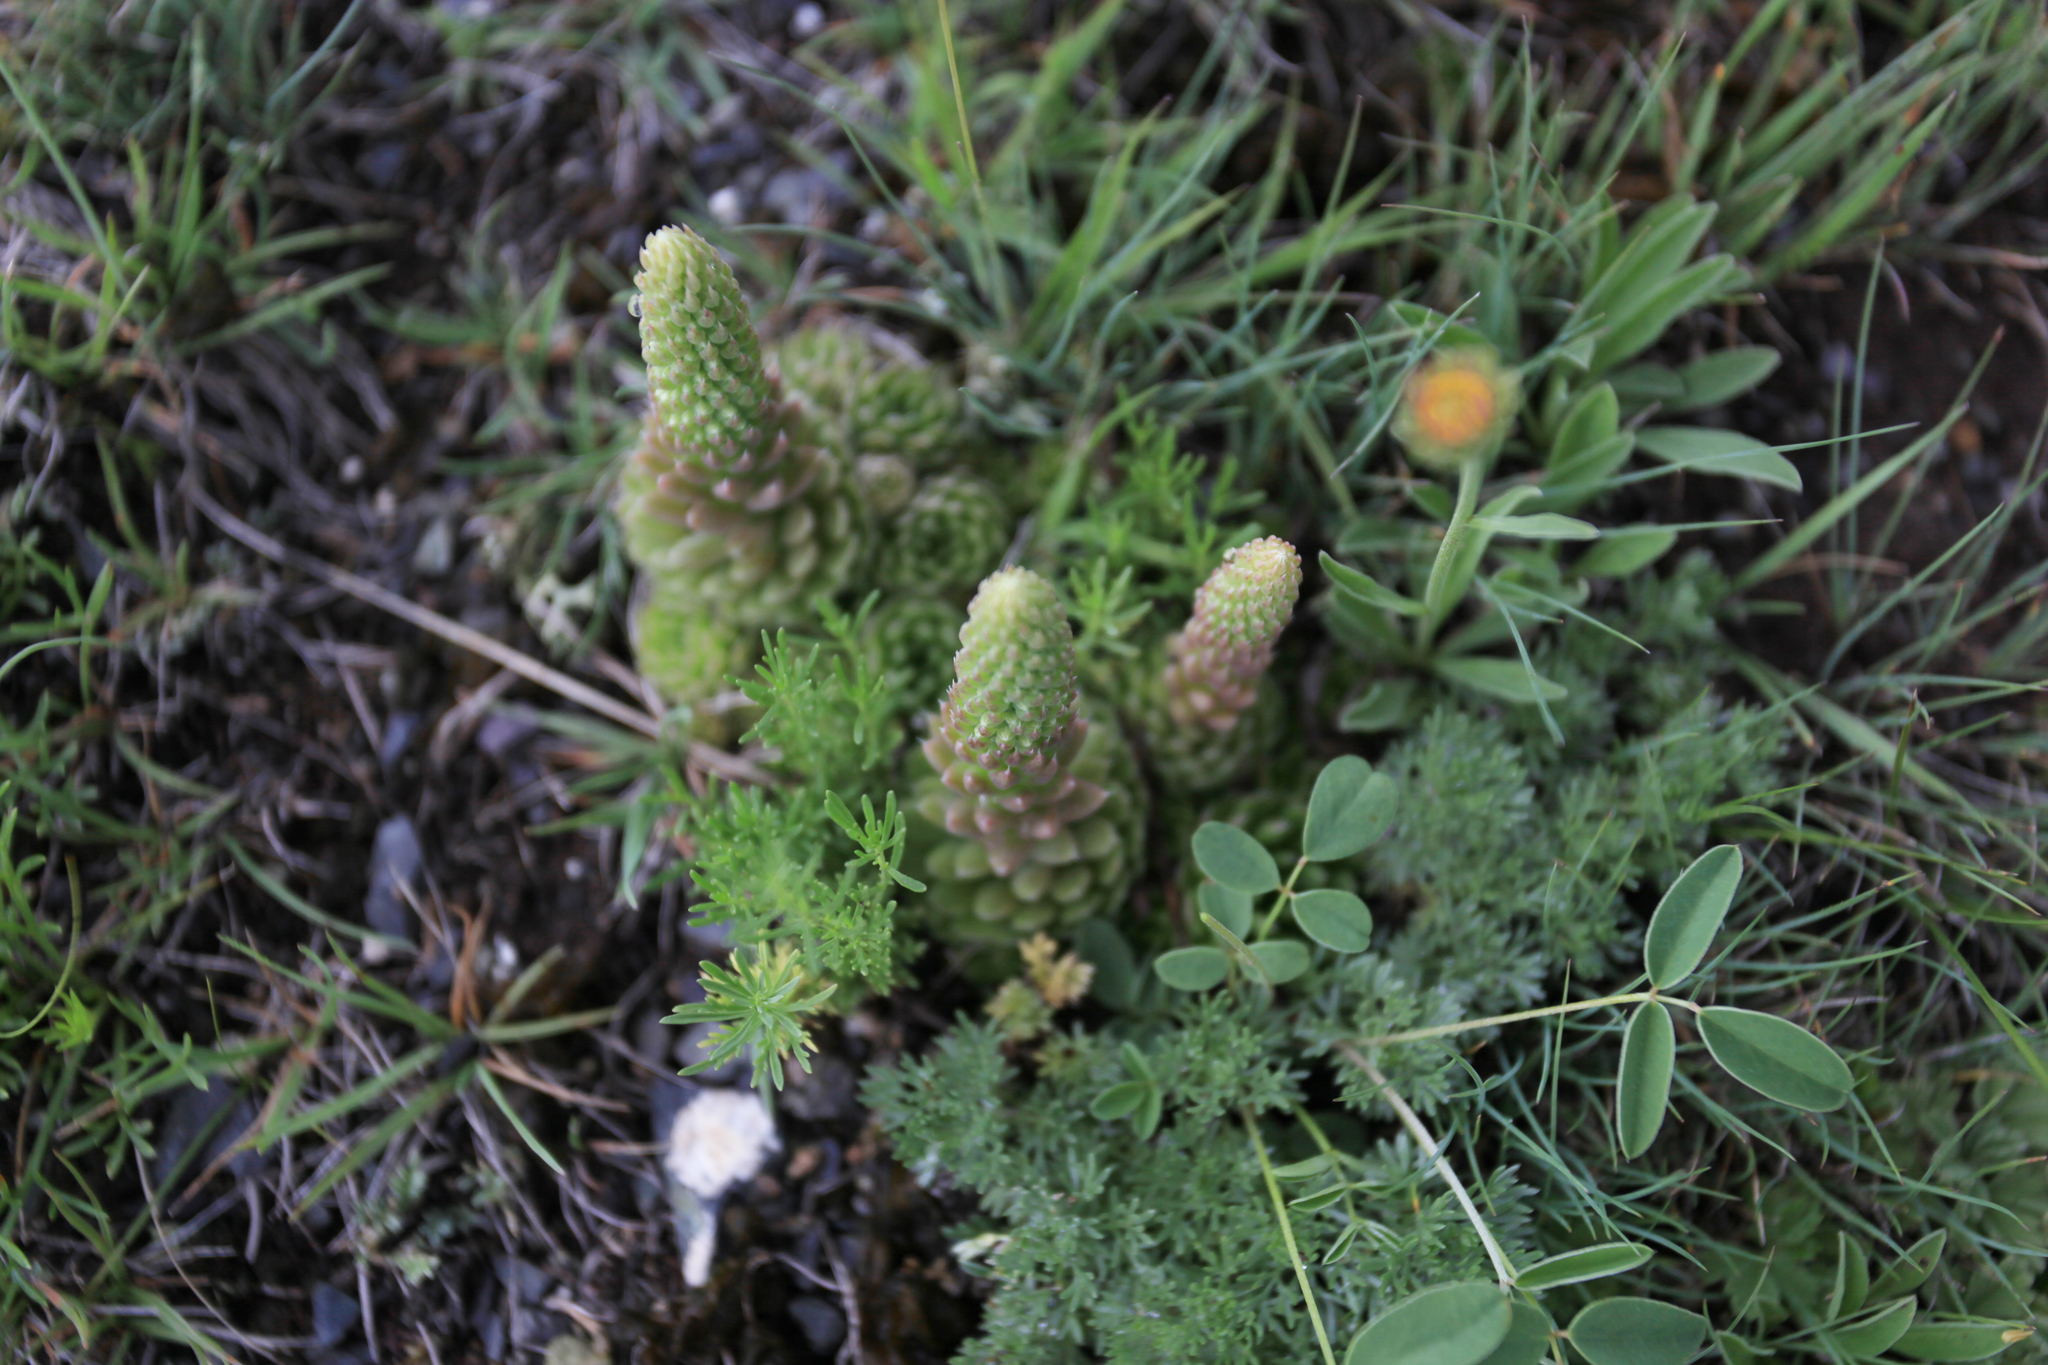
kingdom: Plantae
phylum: Tracheophyta
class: Magnoliopsida
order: Saxifragales
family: Crassulaceae
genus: Orostachys
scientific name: Orostachys spinosa
